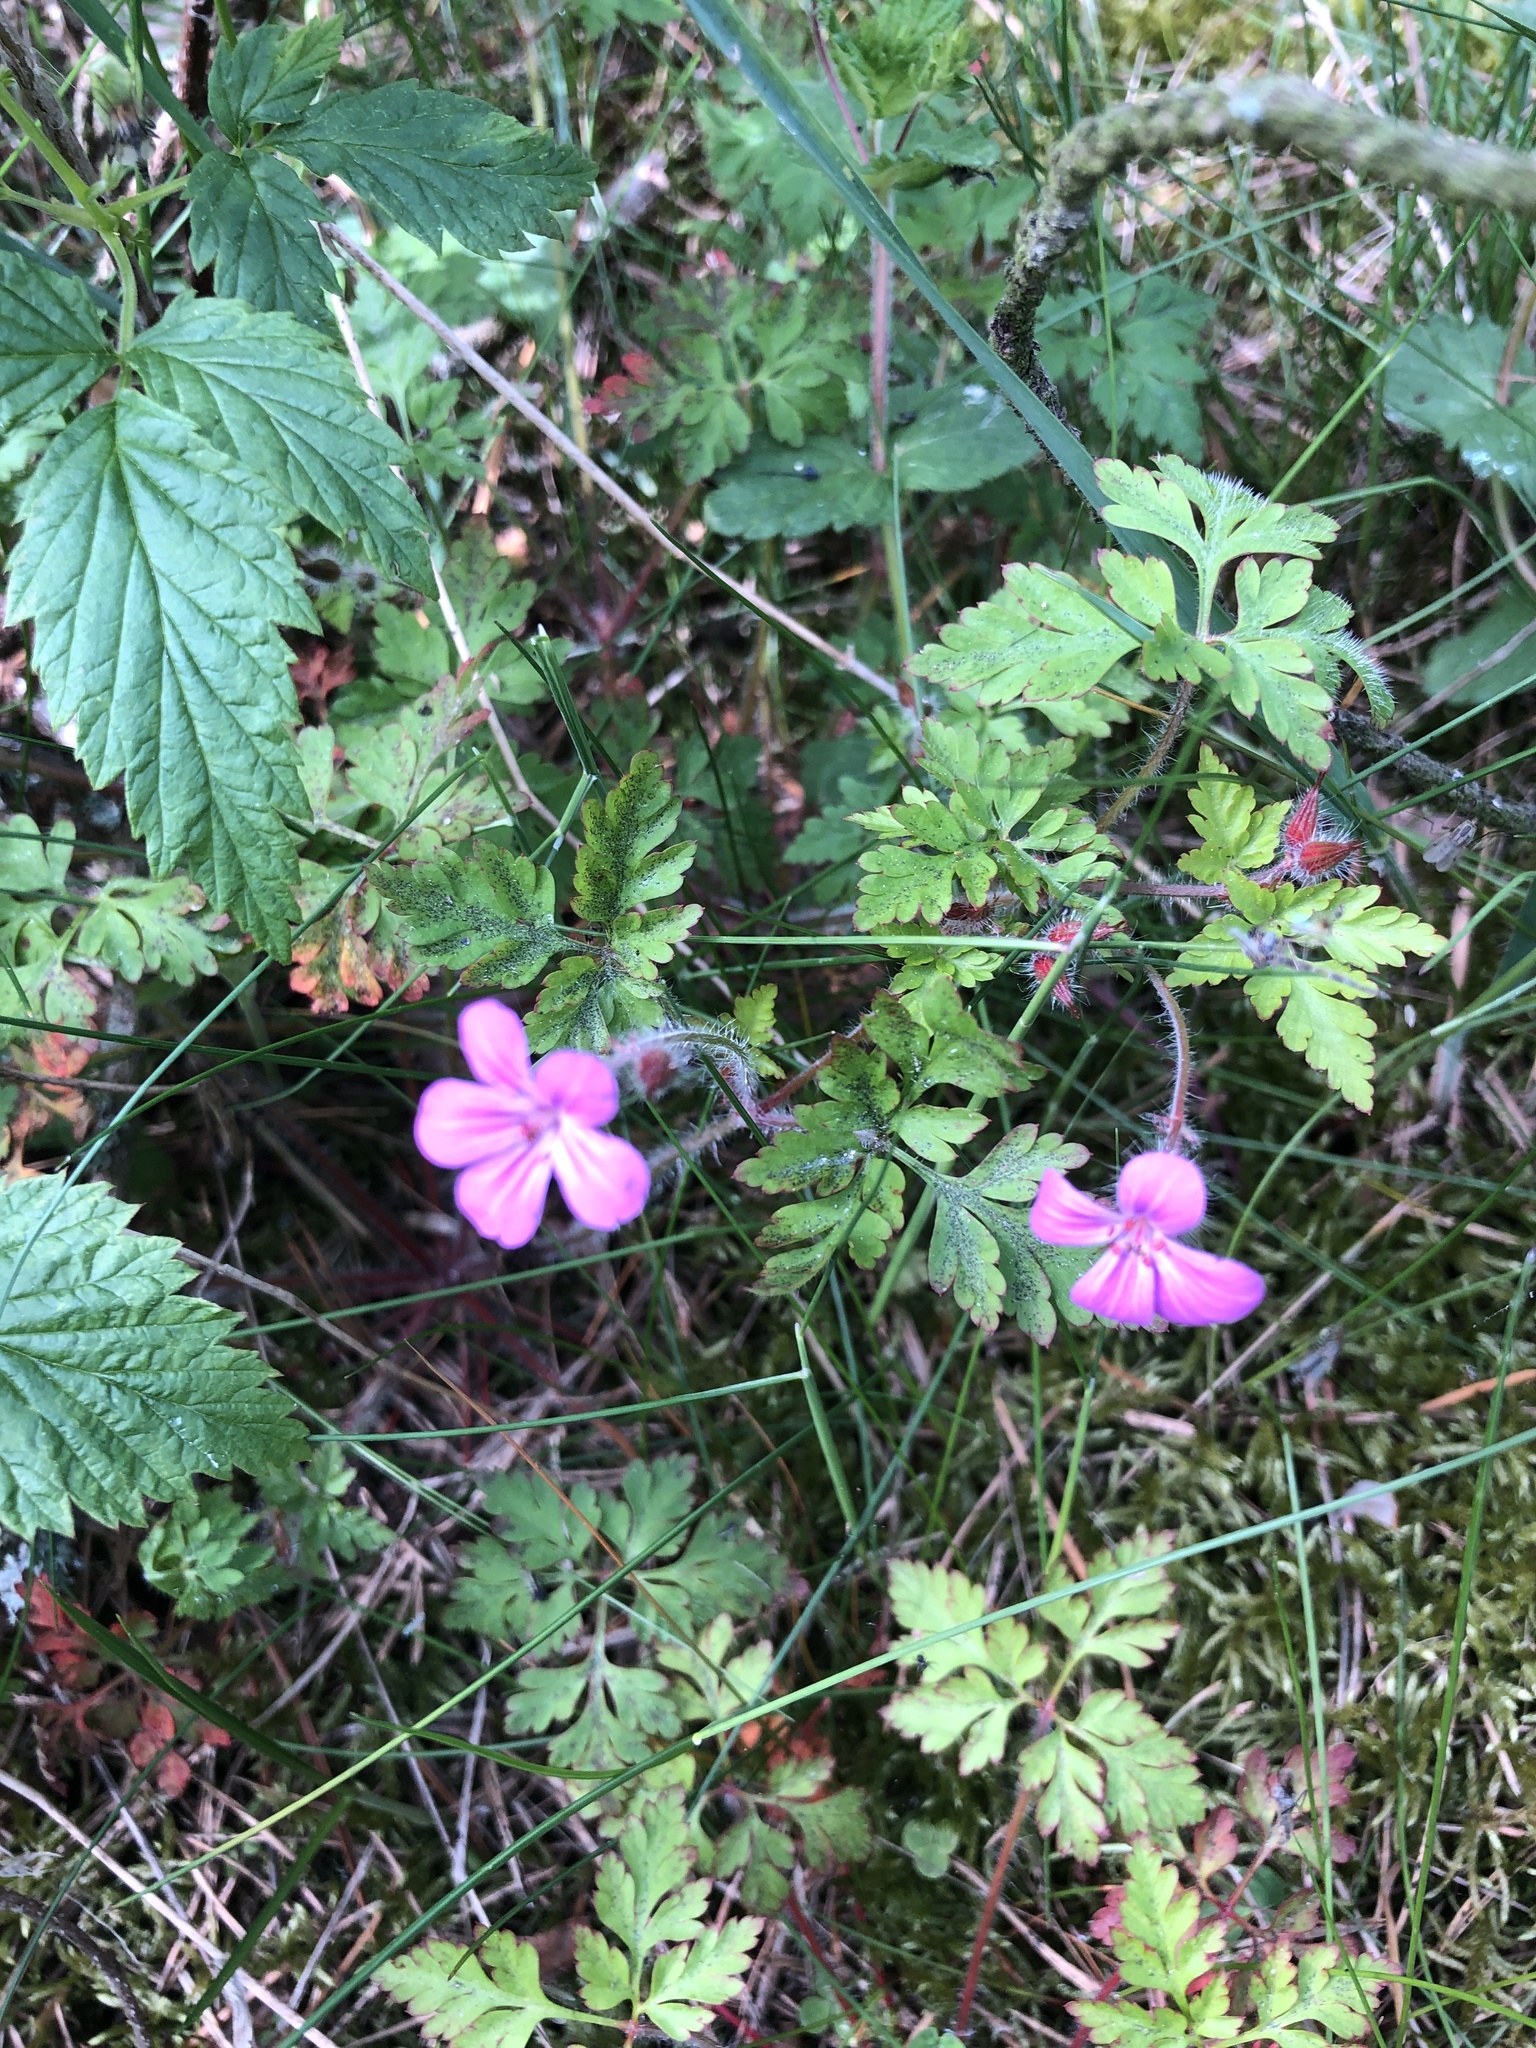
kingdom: Plantae
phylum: Tracheophyta
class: Magnoliopsida
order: Geraniales
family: Geraniaceae
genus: Geranium
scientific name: Geranium robertianum
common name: Herb-robert
